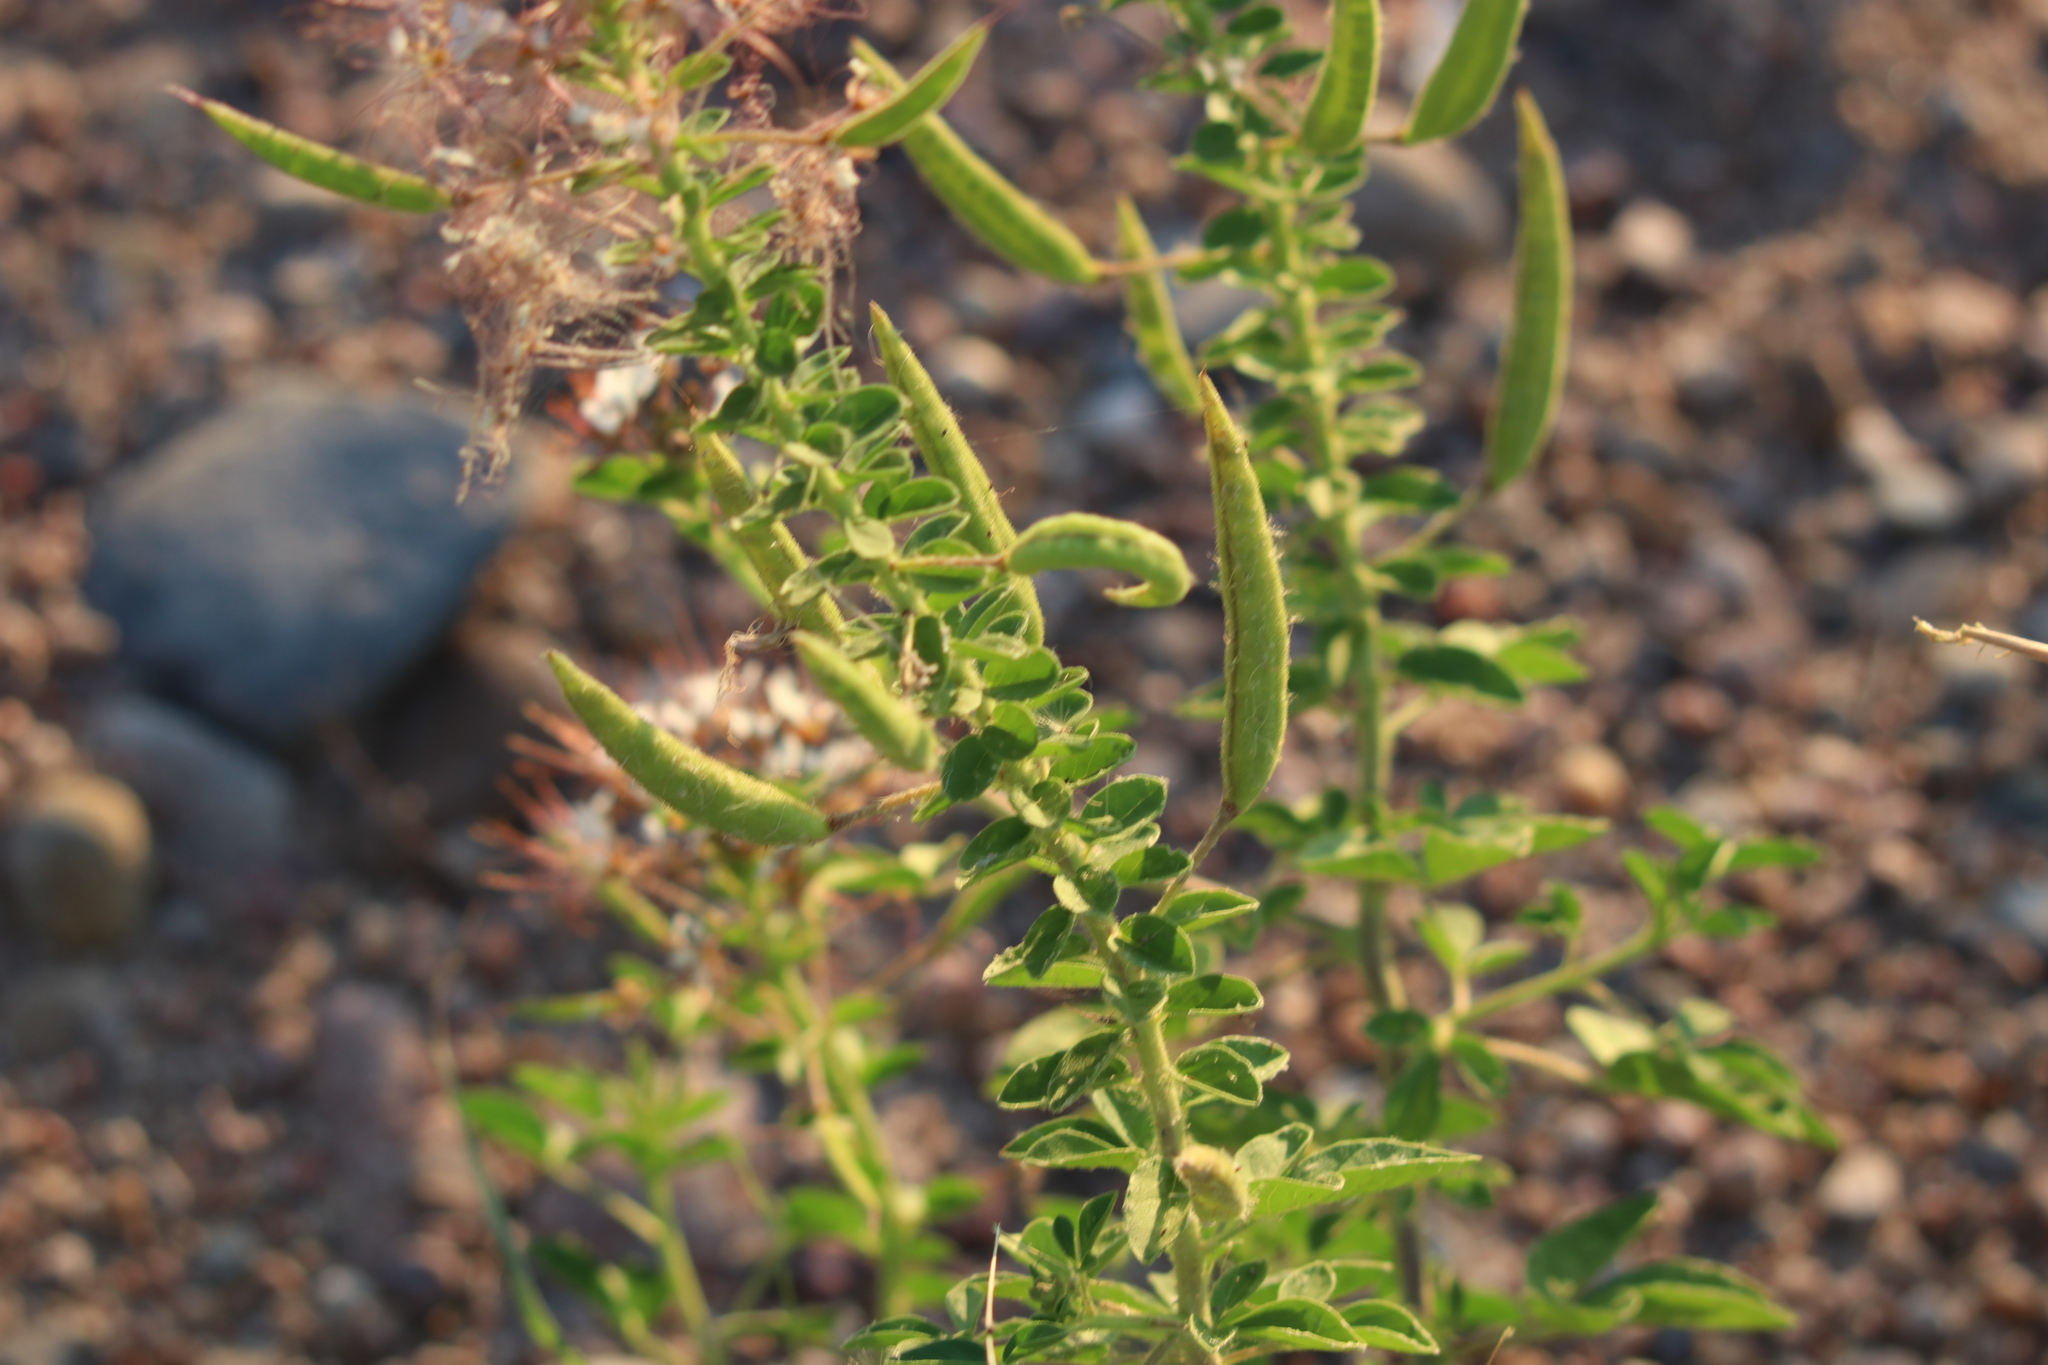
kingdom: Plantae
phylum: Tracheophyta
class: Magnoliopsida
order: Brassicales
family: Cleomaceae
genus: Polanisia
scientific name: Polanisia dodecandra
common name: Clammyweed
